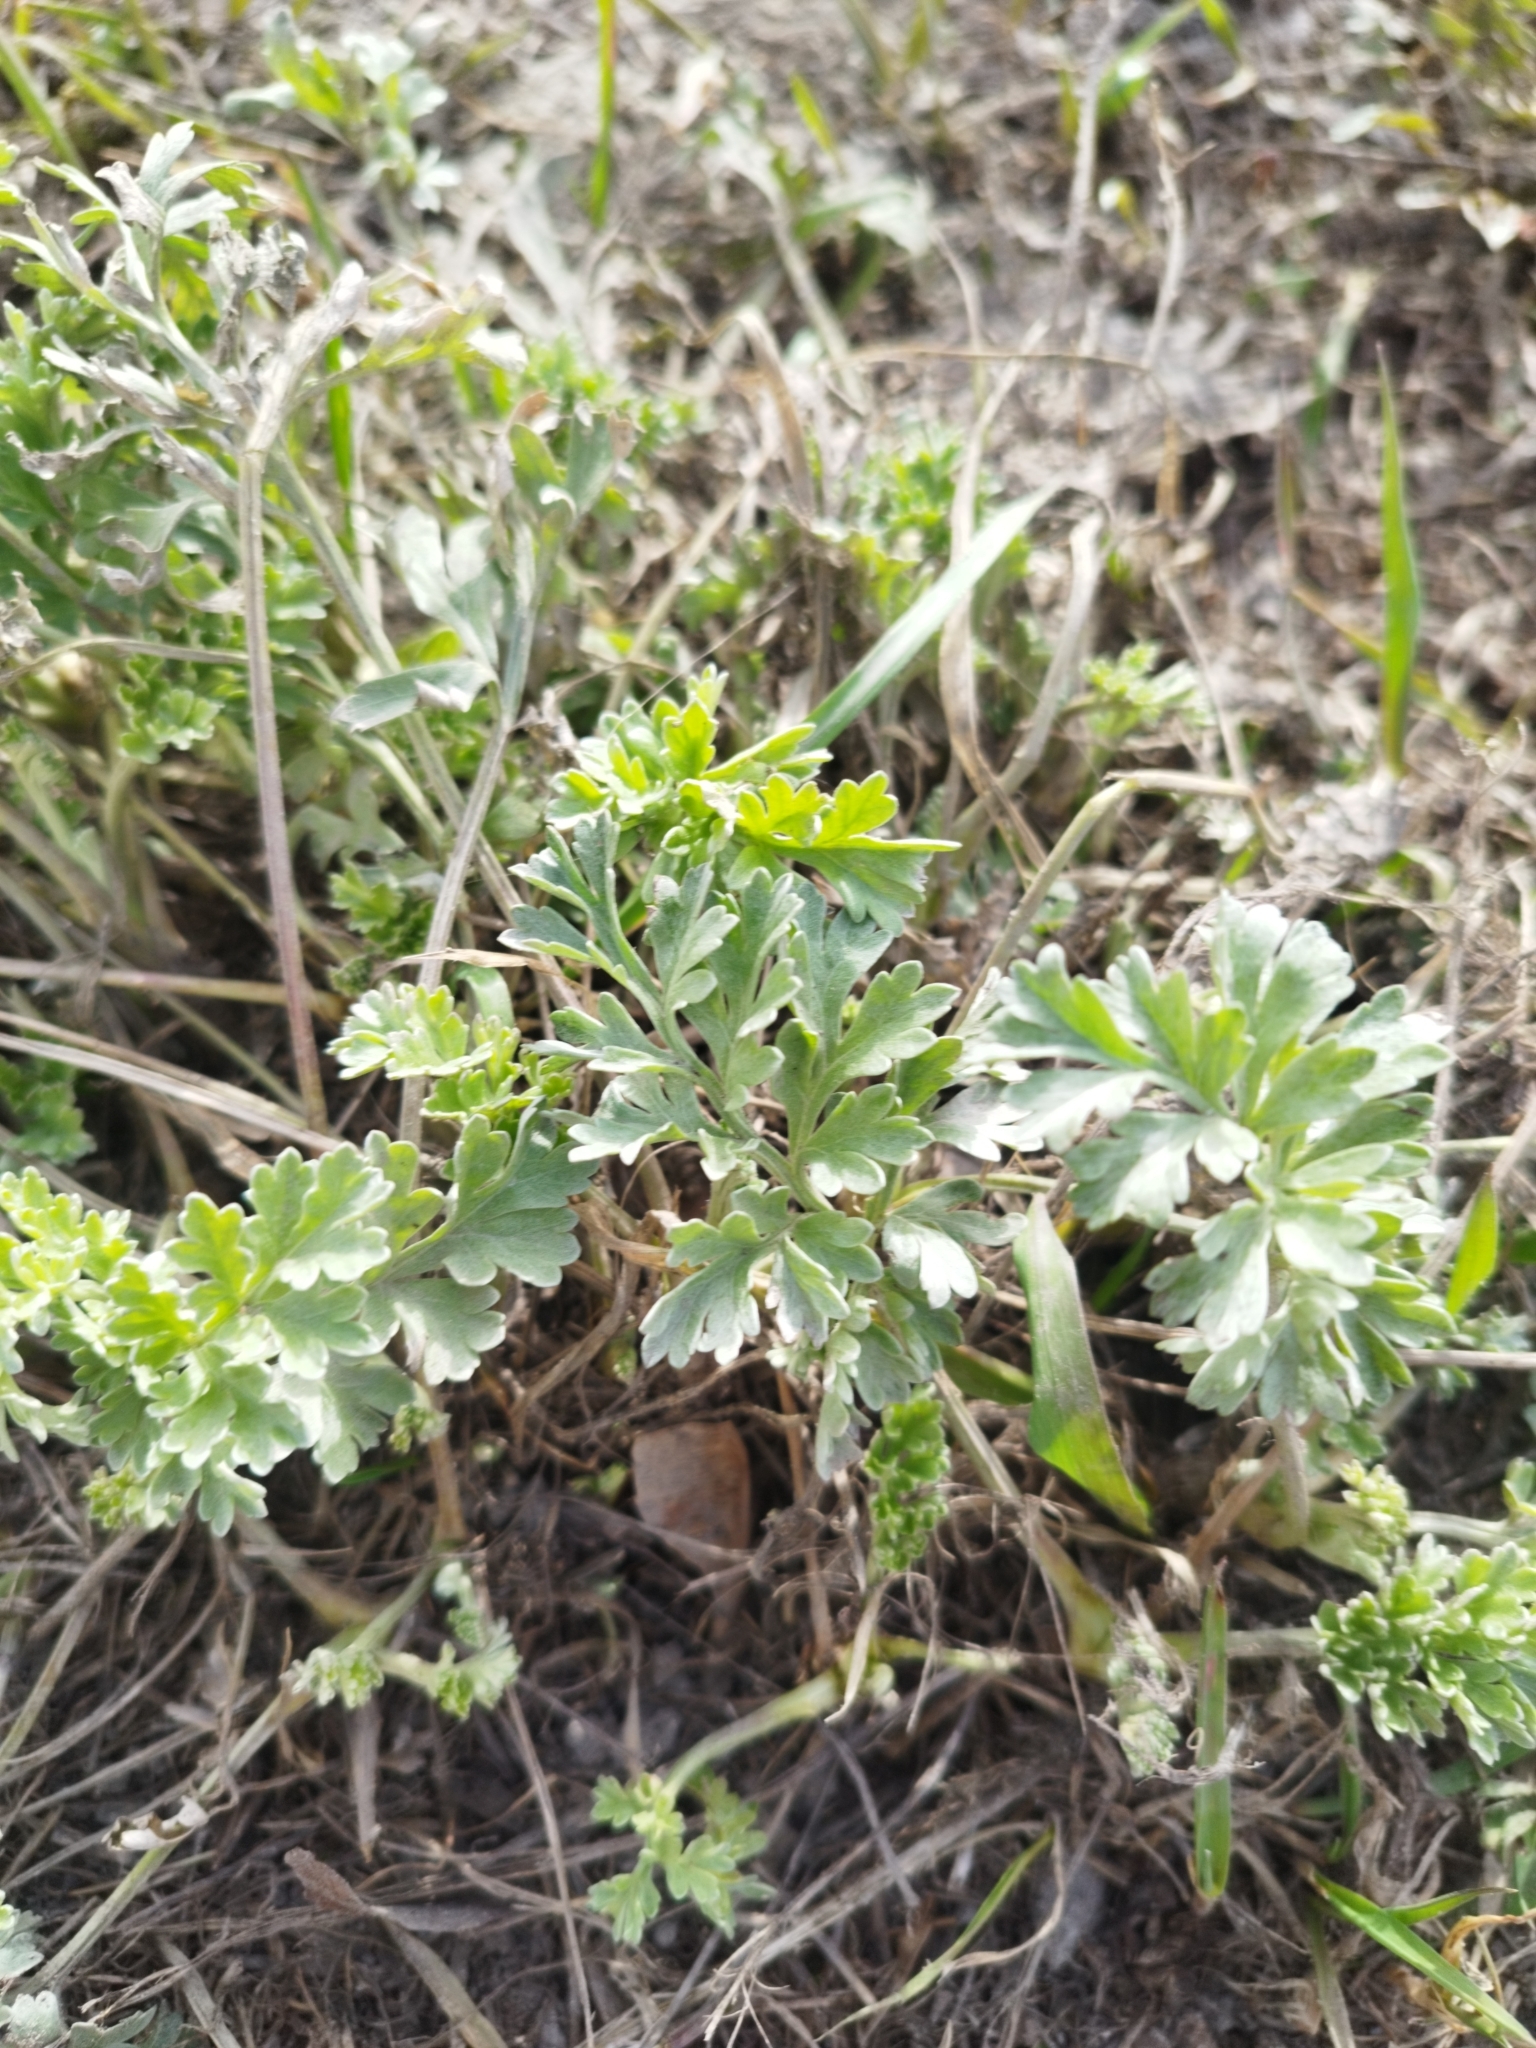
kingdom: Plantae
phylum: Tracheophyta
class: Magnoliopsida
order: Asterales
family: Asteraceae
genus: Artemisia
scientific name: Artemisia absinthium
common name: Wormwood
